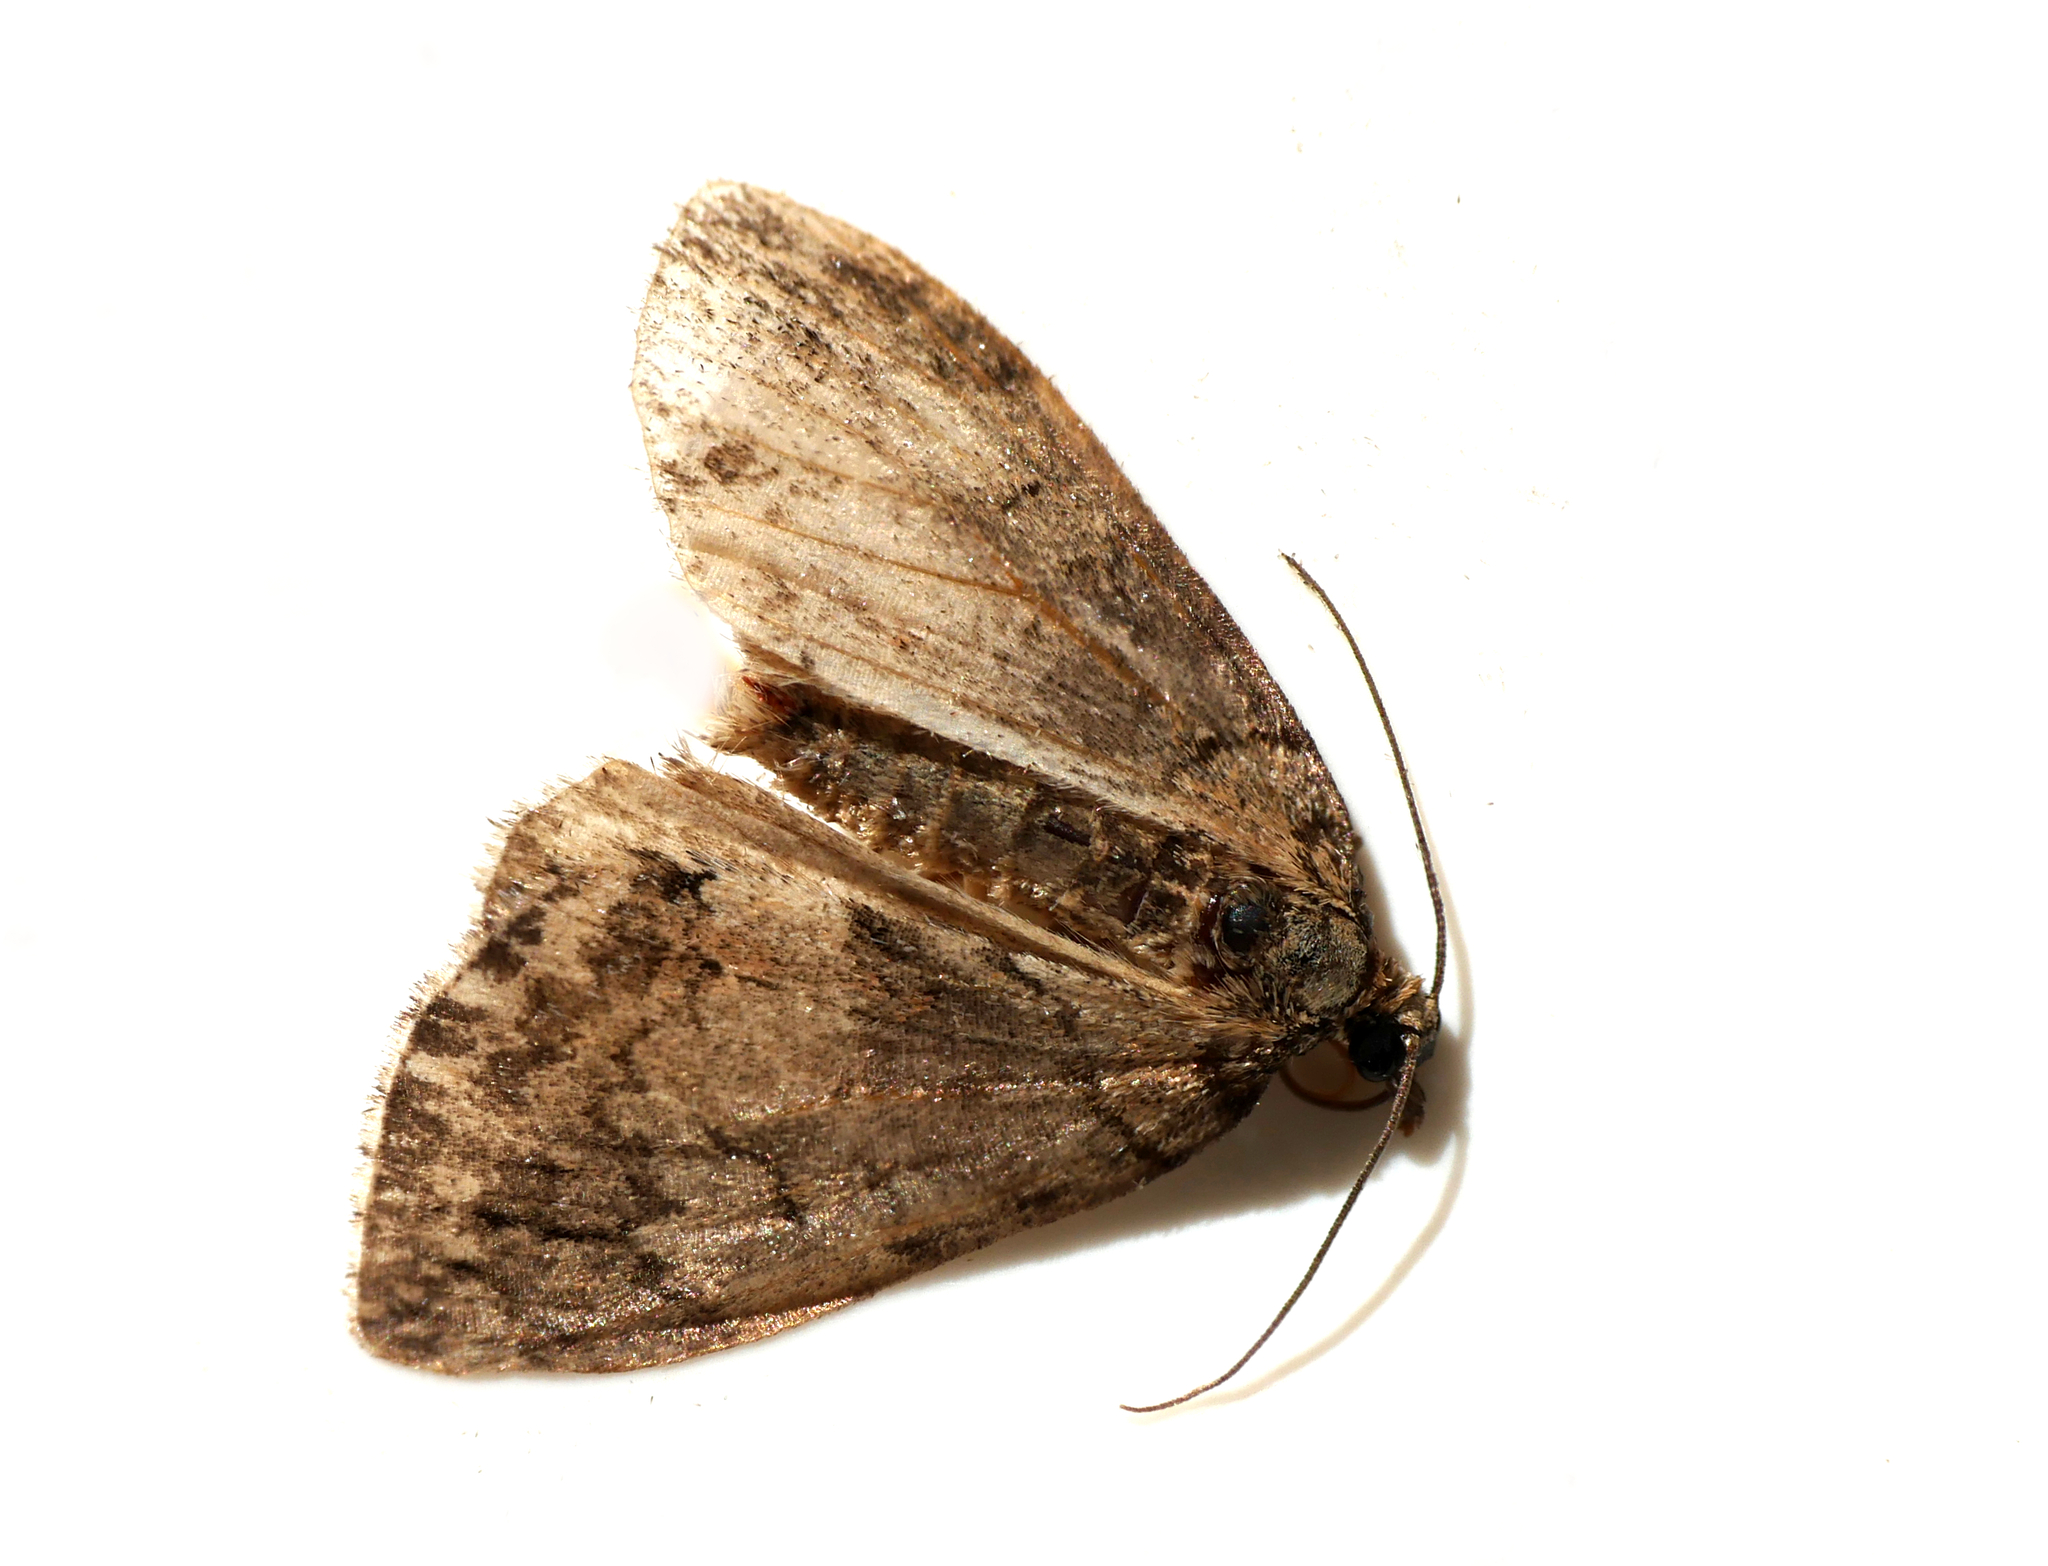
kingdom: Animalia
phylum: Arthropoda
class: Insecta
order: Lepidoptera
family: Geometridae
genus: Hydriomena
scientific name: Hydriomena impluviata
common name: May highflyer
